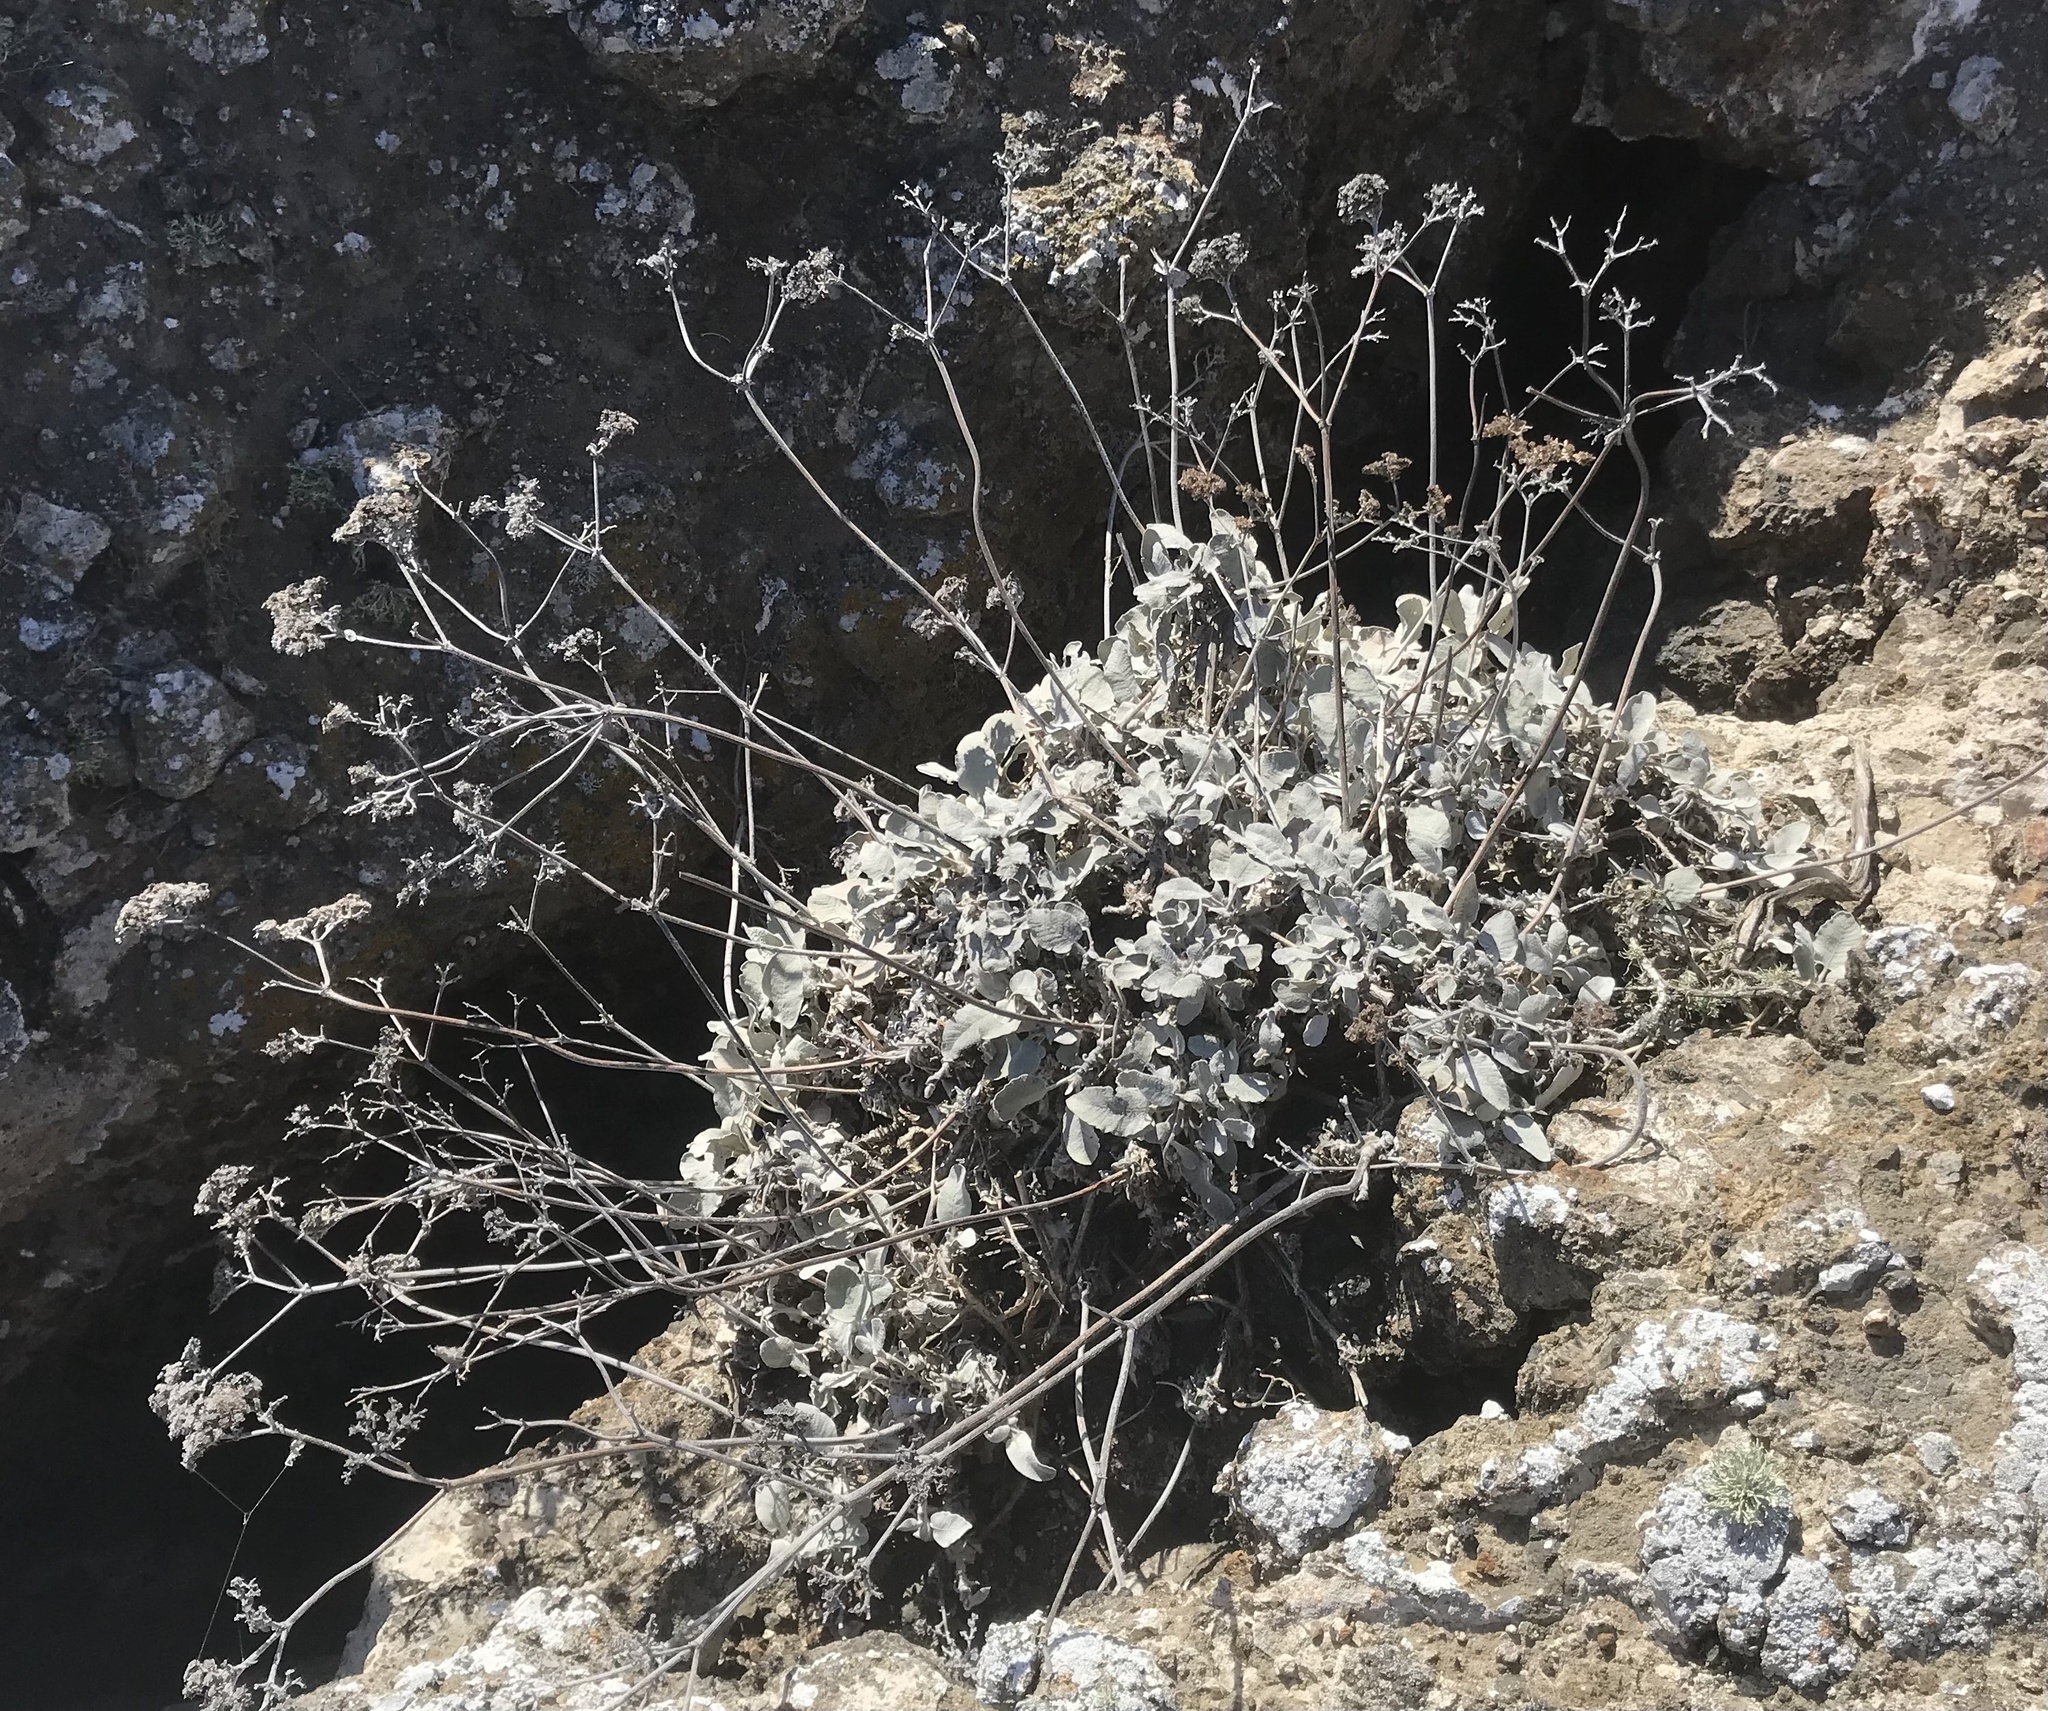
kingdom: Plantae
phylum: Tracheophyta
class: Magnoliopsida
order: Caryophyllales
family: Polygonaceae
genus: Eriogonum
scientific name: Eriogonum giganteum
